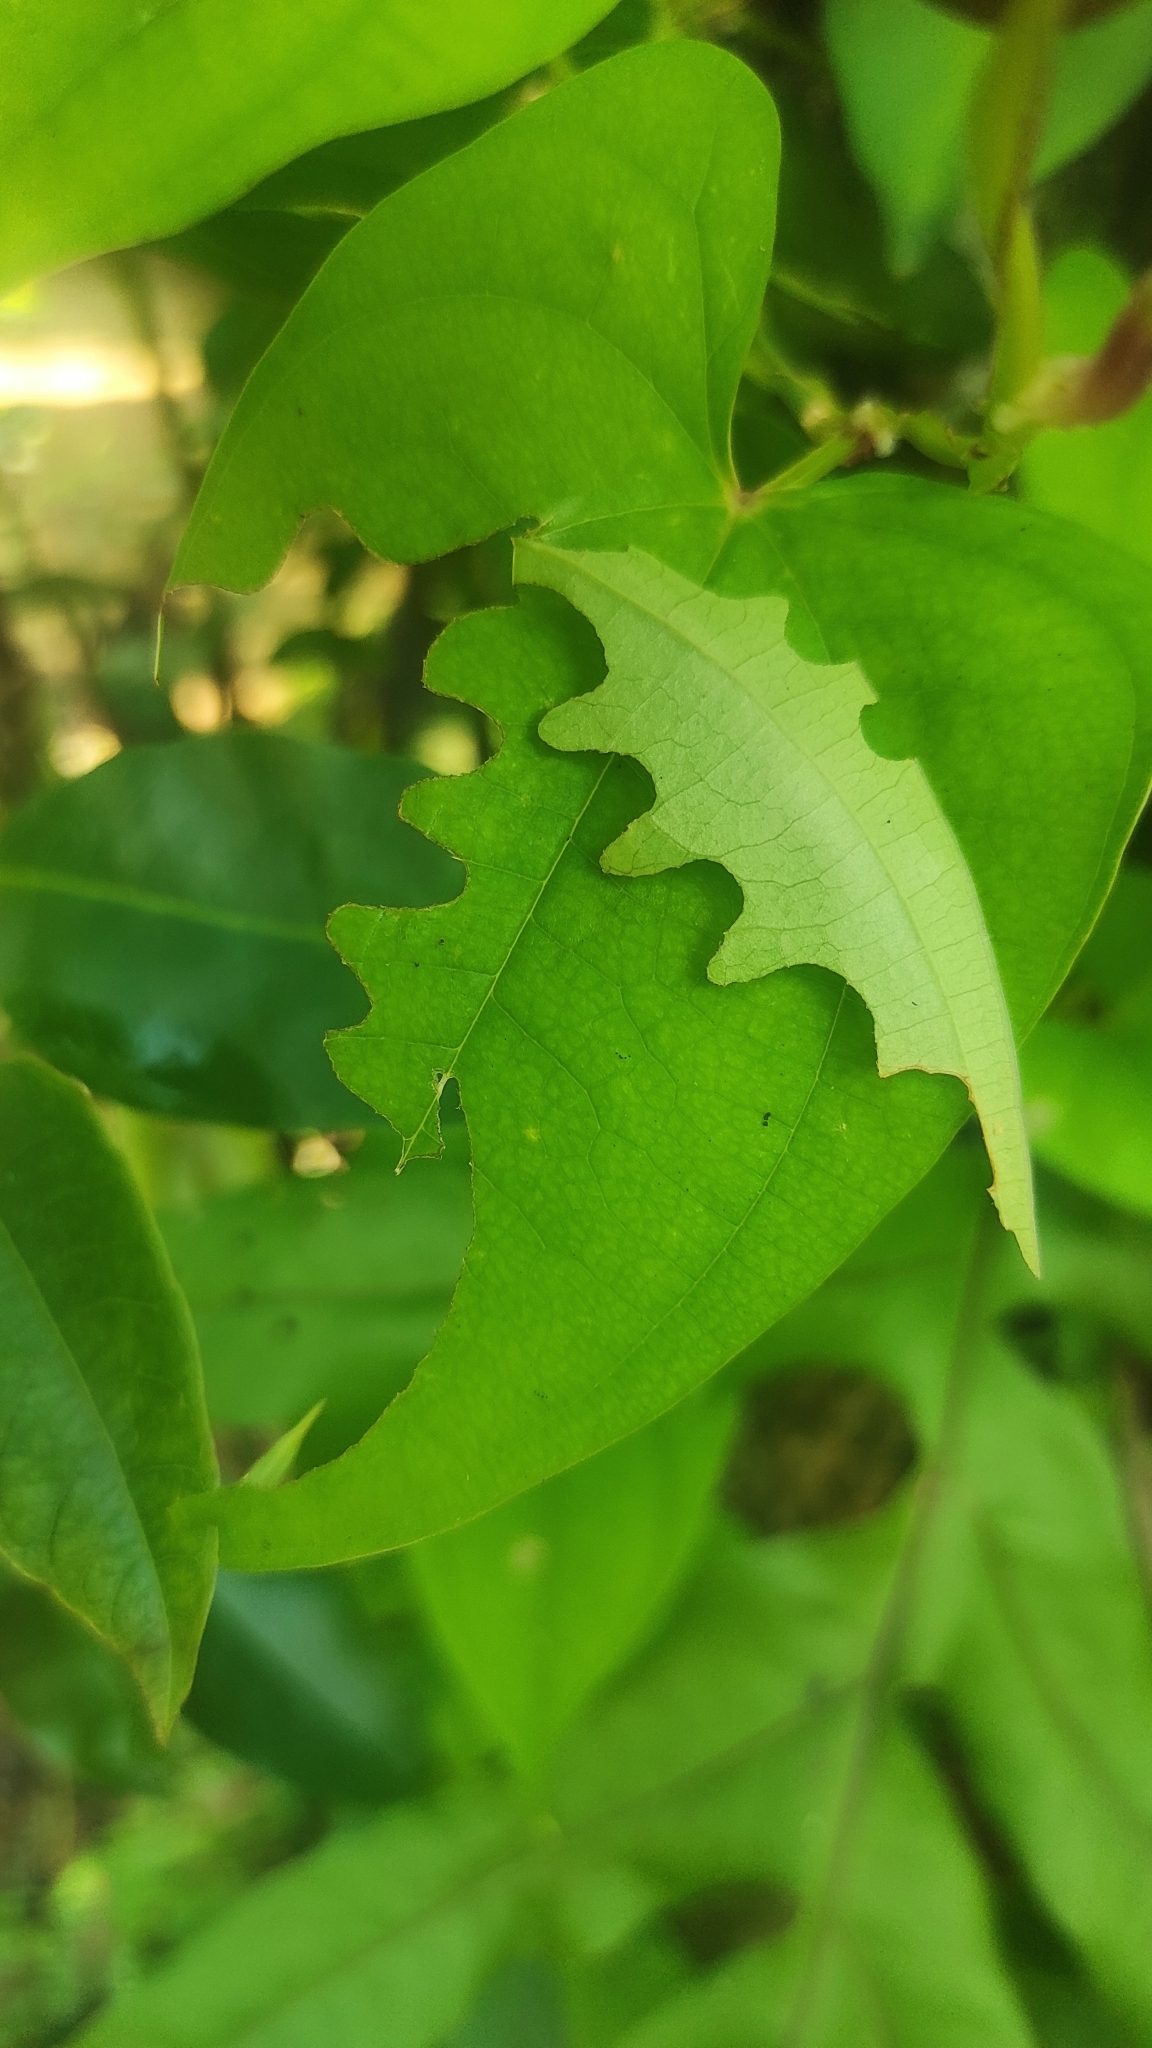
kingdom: Animalia
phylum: Arthropoda
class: Insecta
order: Lepidoptera
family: Hesperiidae
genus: Tagiades
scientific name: Tagiades litigiosa
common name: Water snow flat
